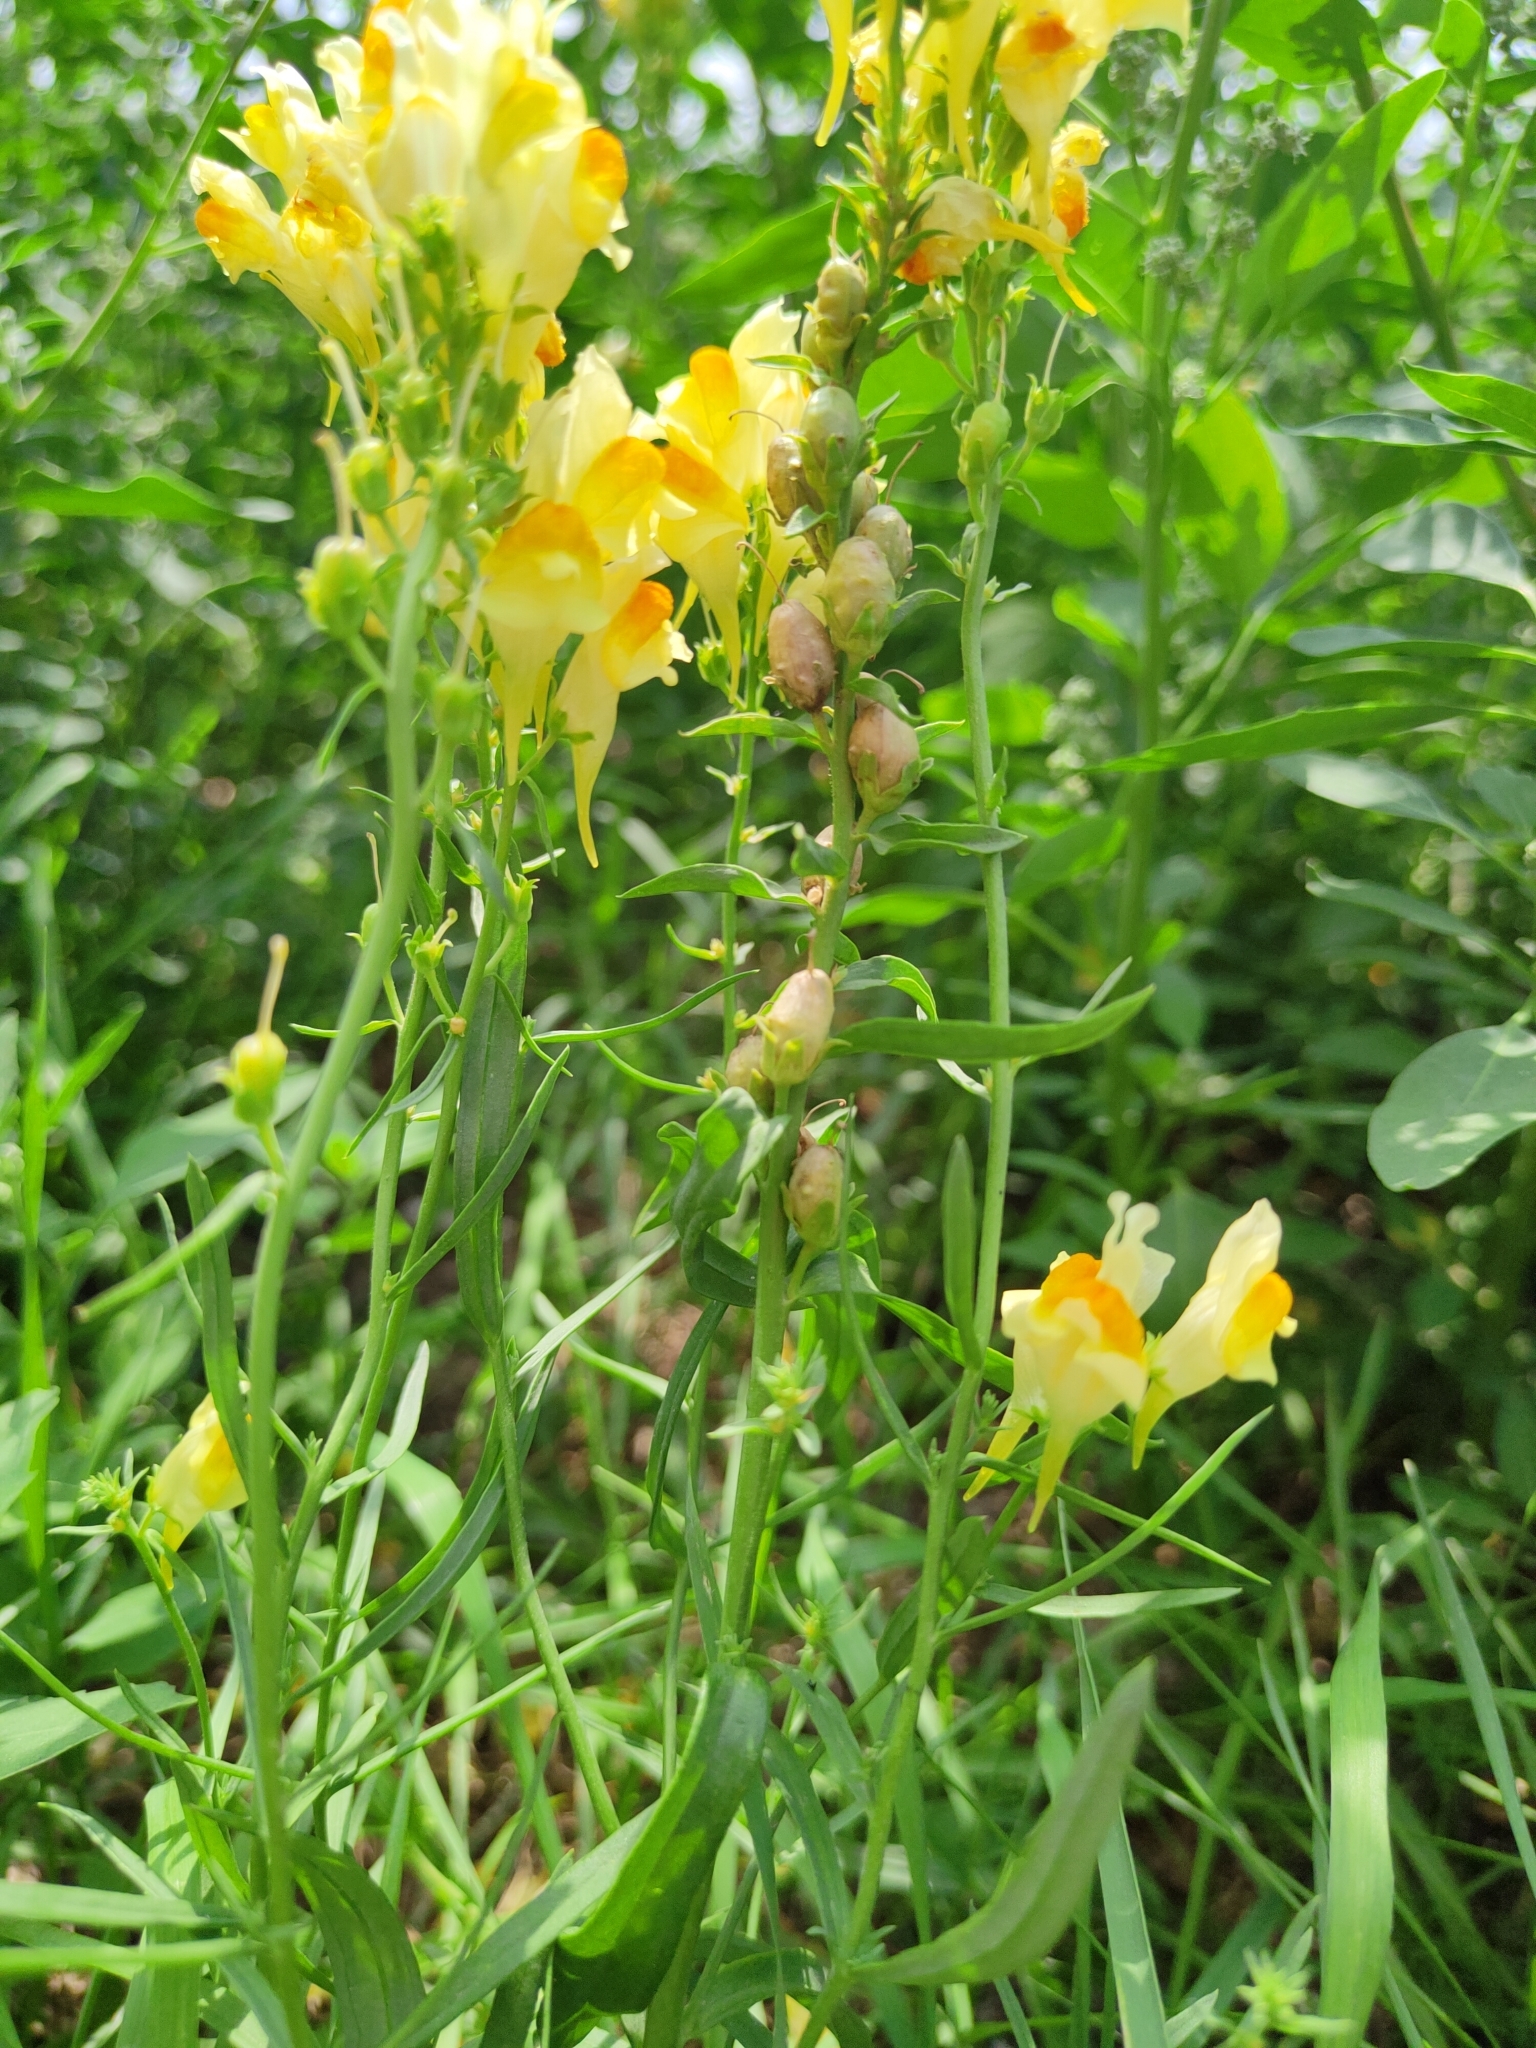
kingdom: Plantae
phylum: Tracheophyta
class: Magnoliopsida
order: Lamiales
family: Plantaginaceae
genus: Linaria
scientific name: Linaria vulgaris
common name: Butter and eggs
